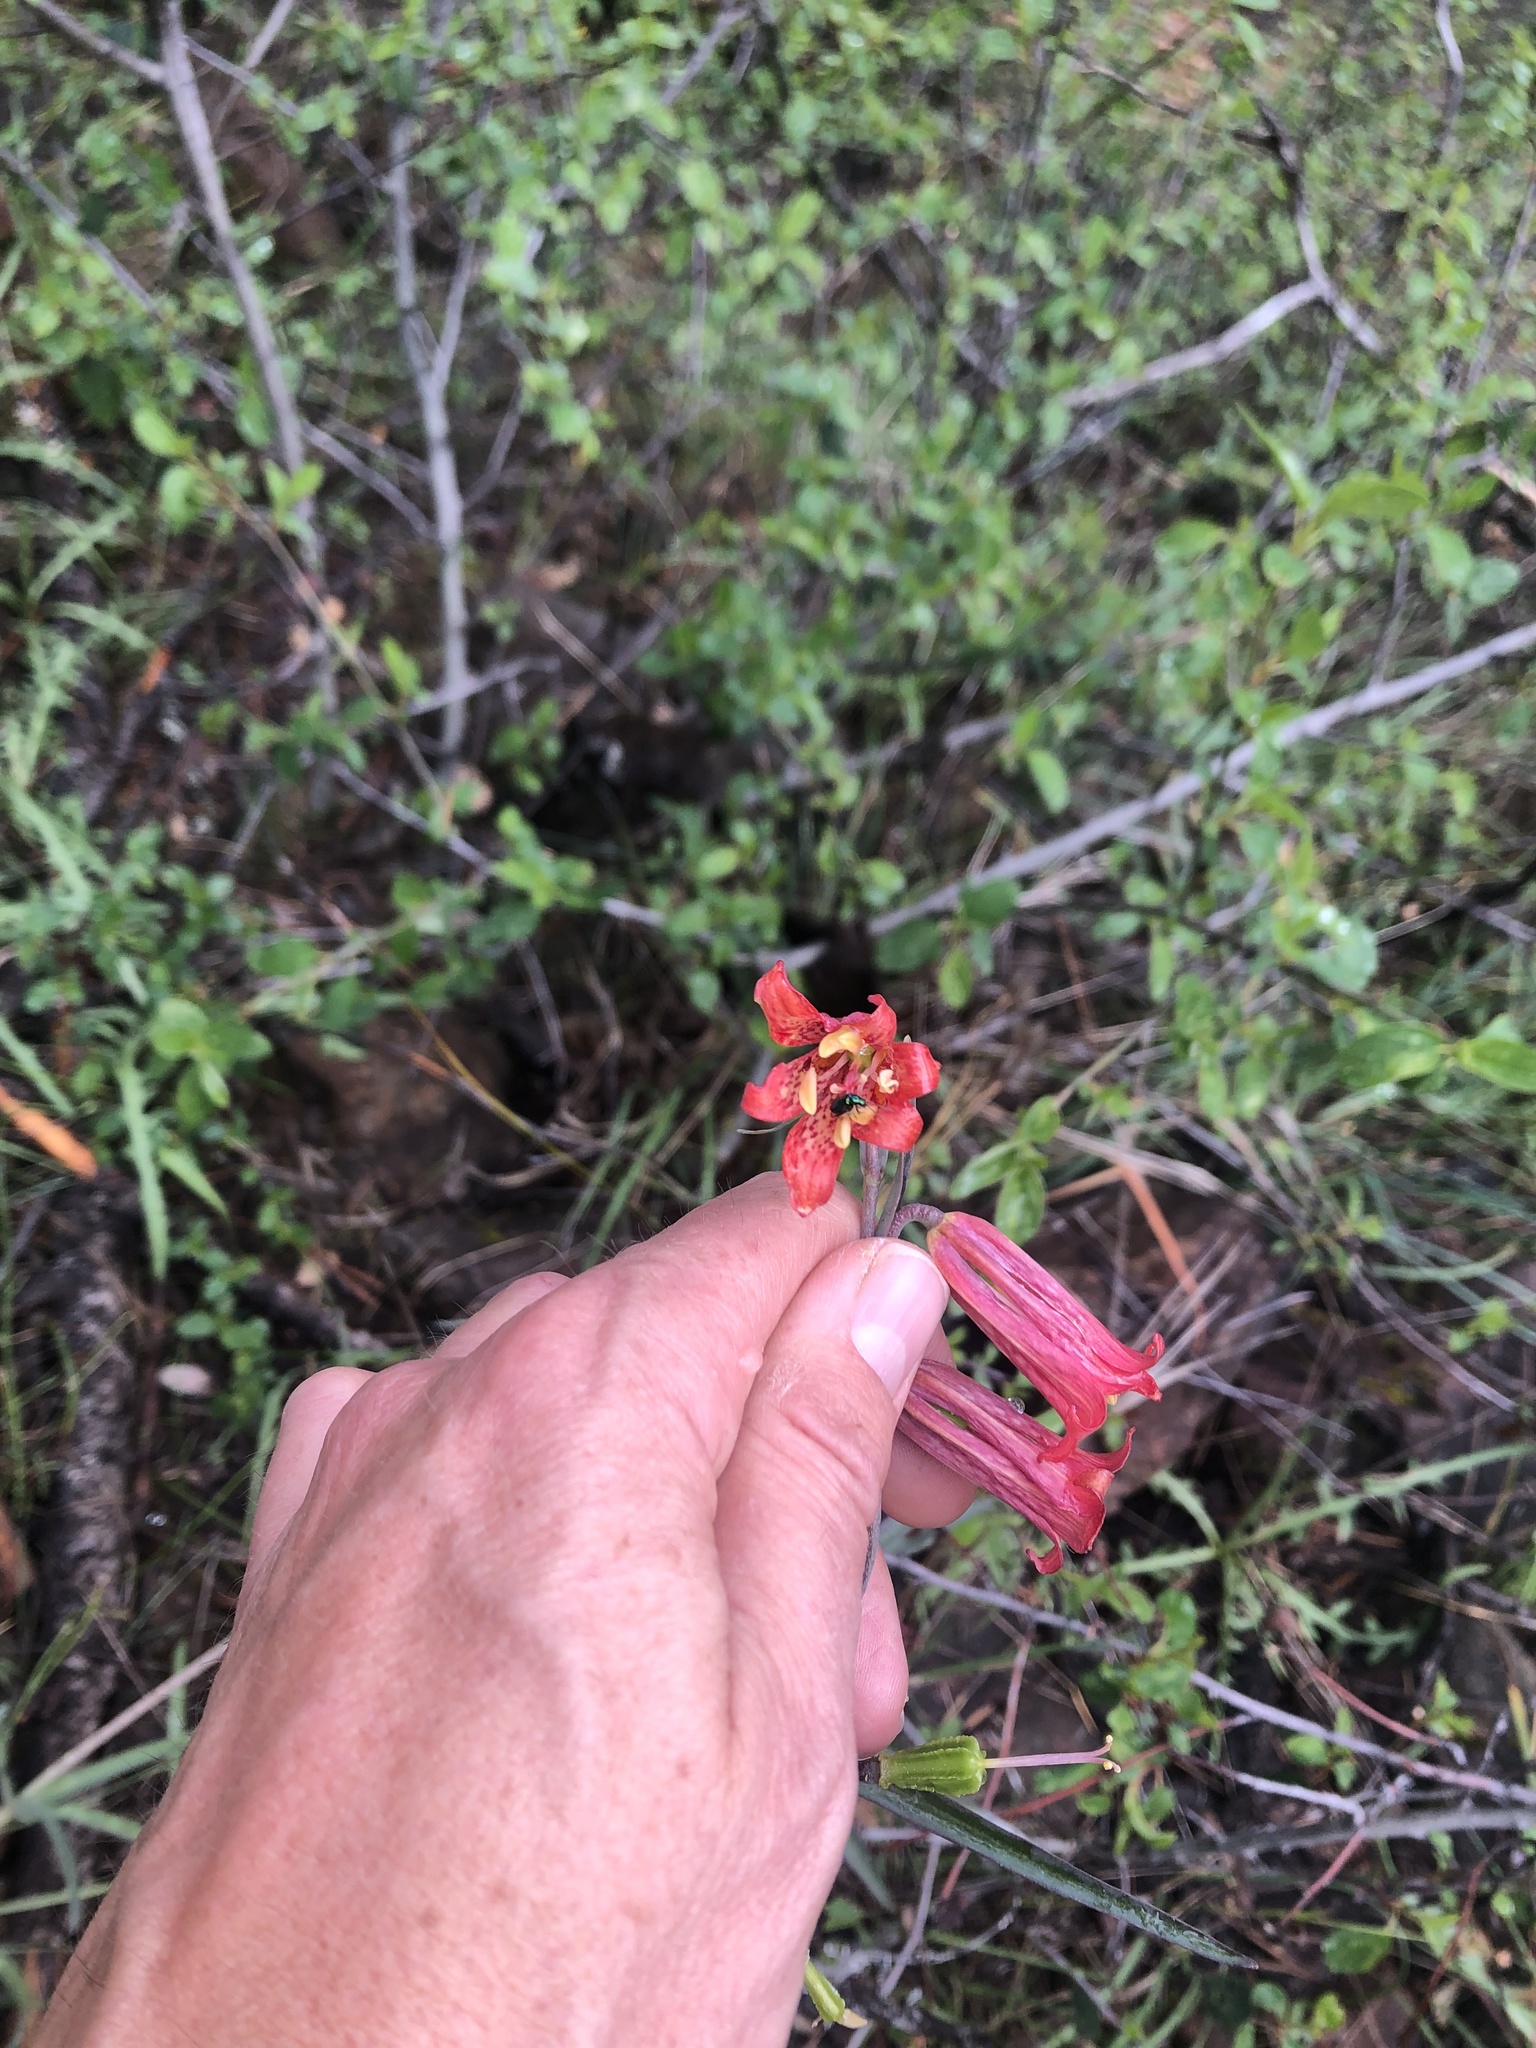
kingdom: Plantae
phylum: Tracheophyta
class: Liliopsida
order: Liliales
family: Liliaceae
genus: Fritillaria
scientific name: Fritillaria recurva
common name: Scarlet fritillary
